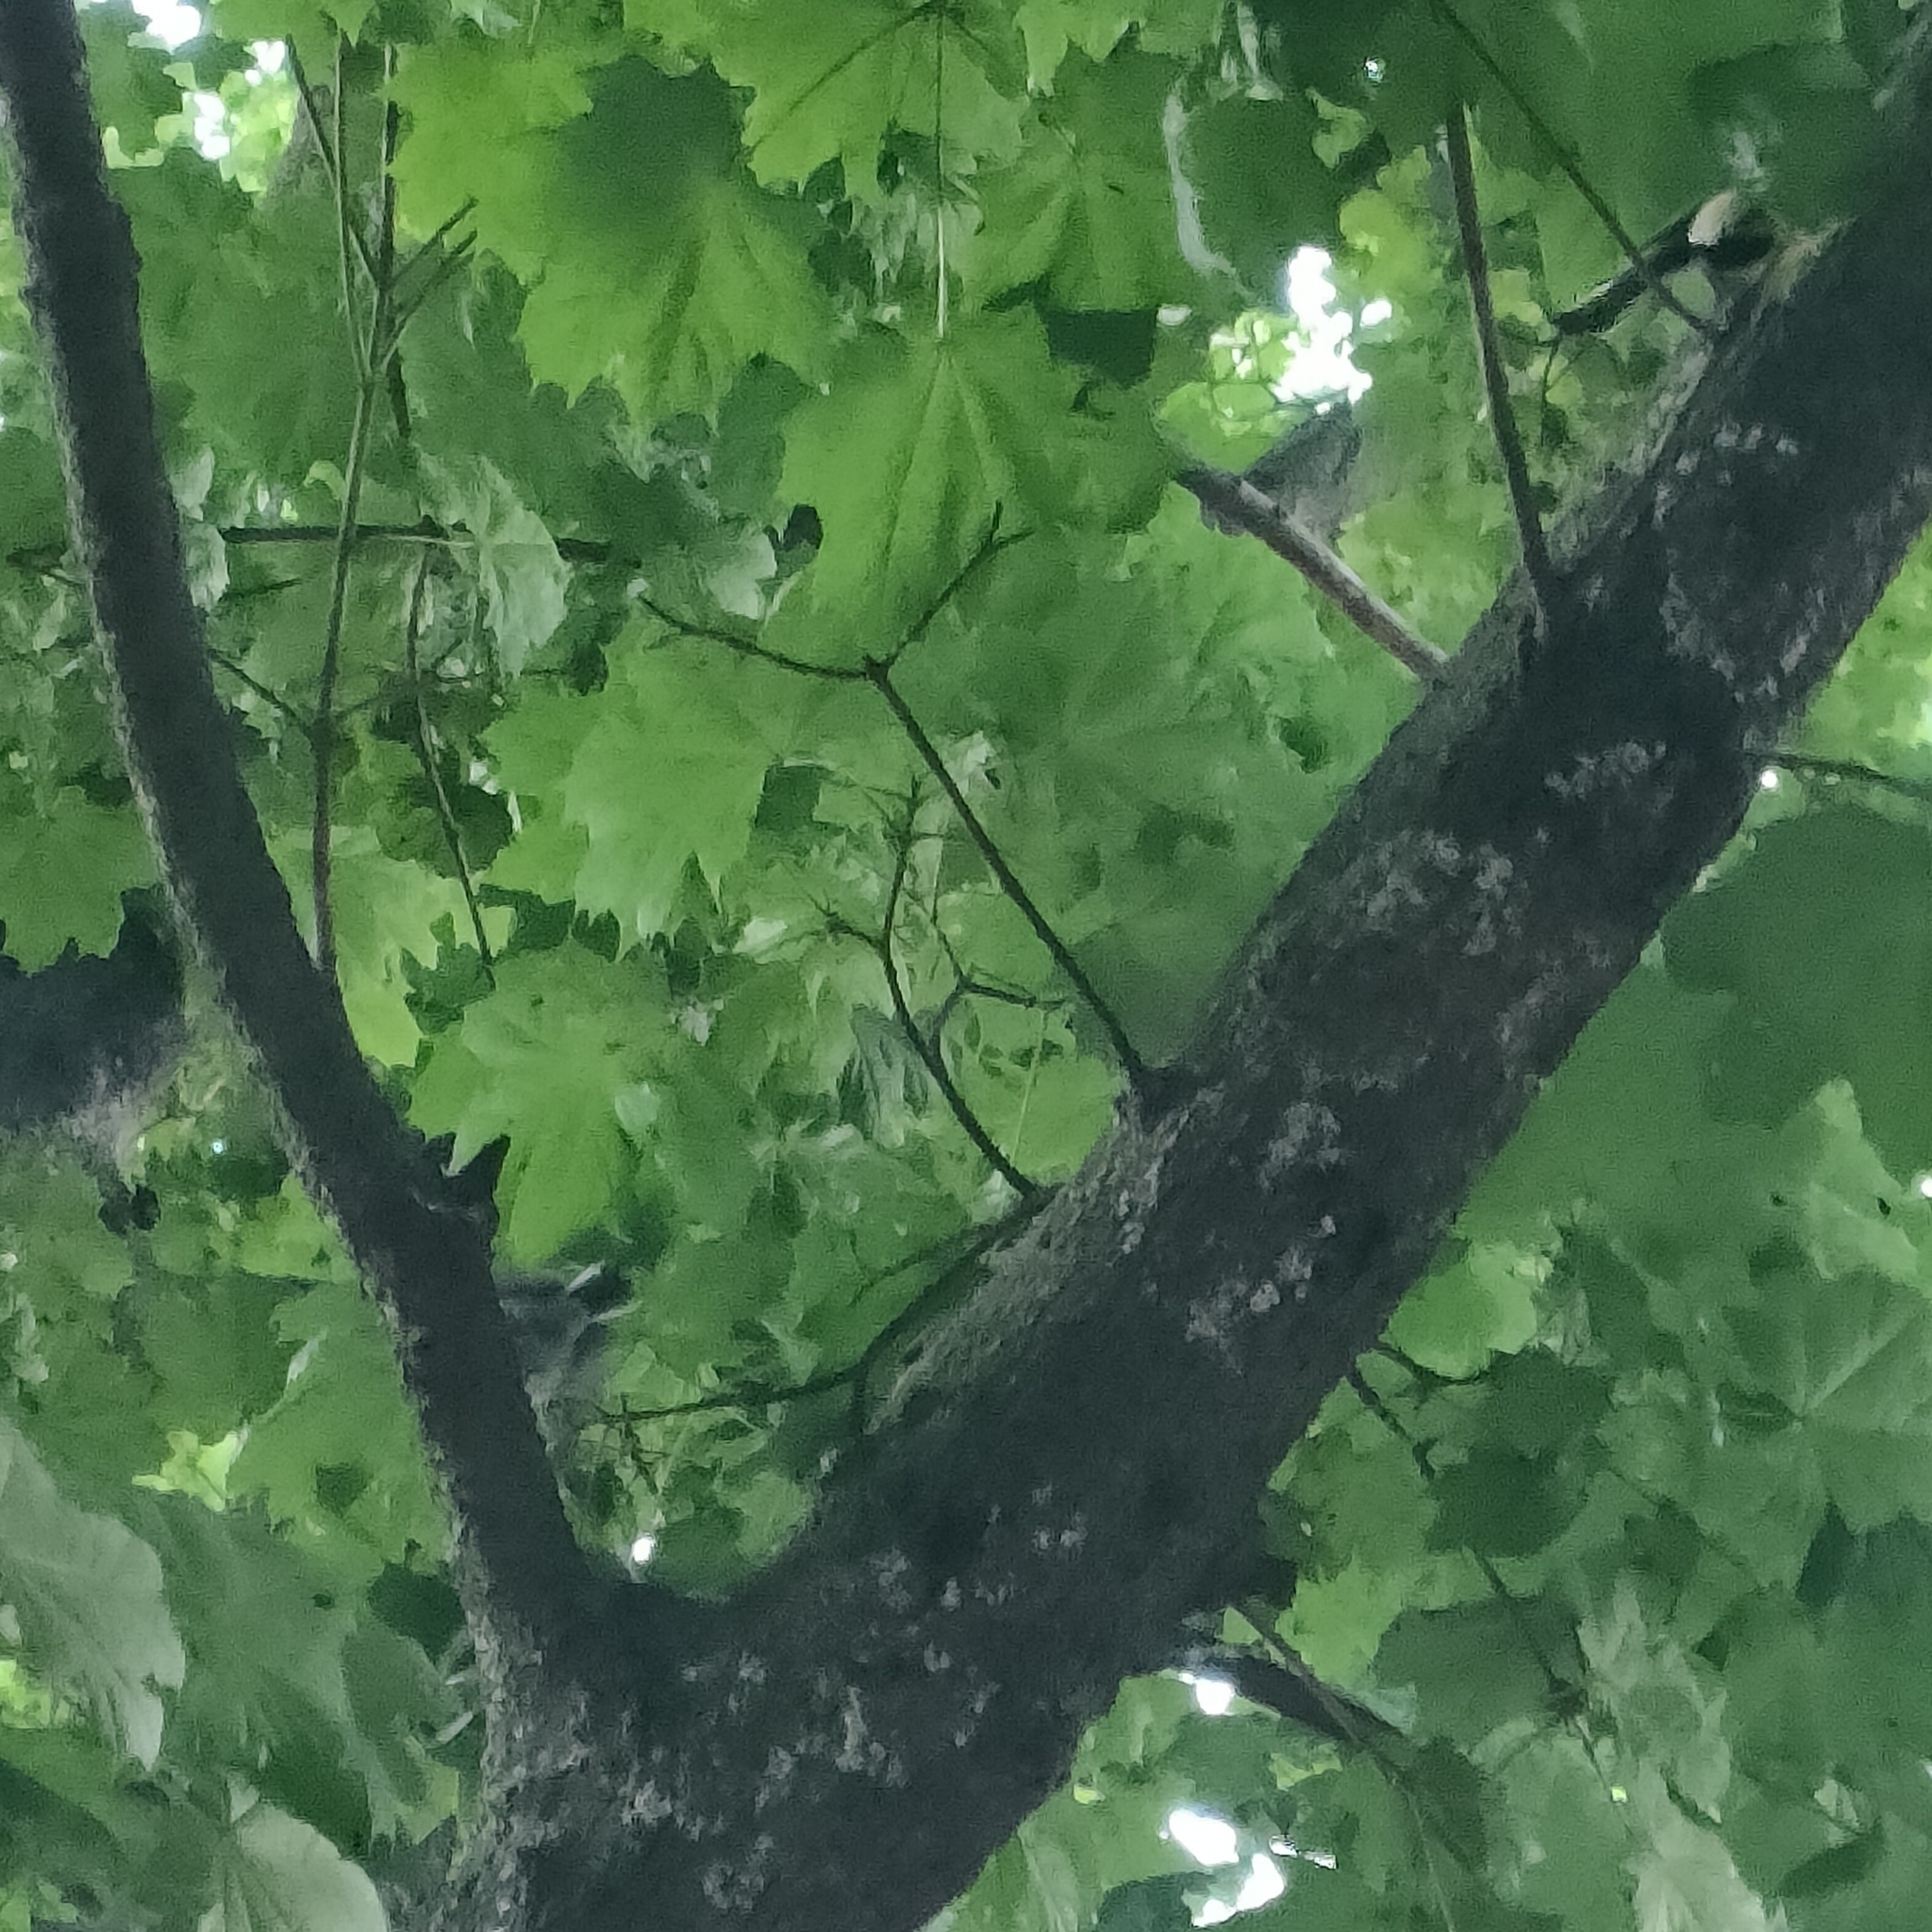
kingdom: Animalia
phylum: Chordata
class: Aves
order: Passeriformes
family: Paridae
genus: Parus
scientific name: Parus major
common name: Great tit
